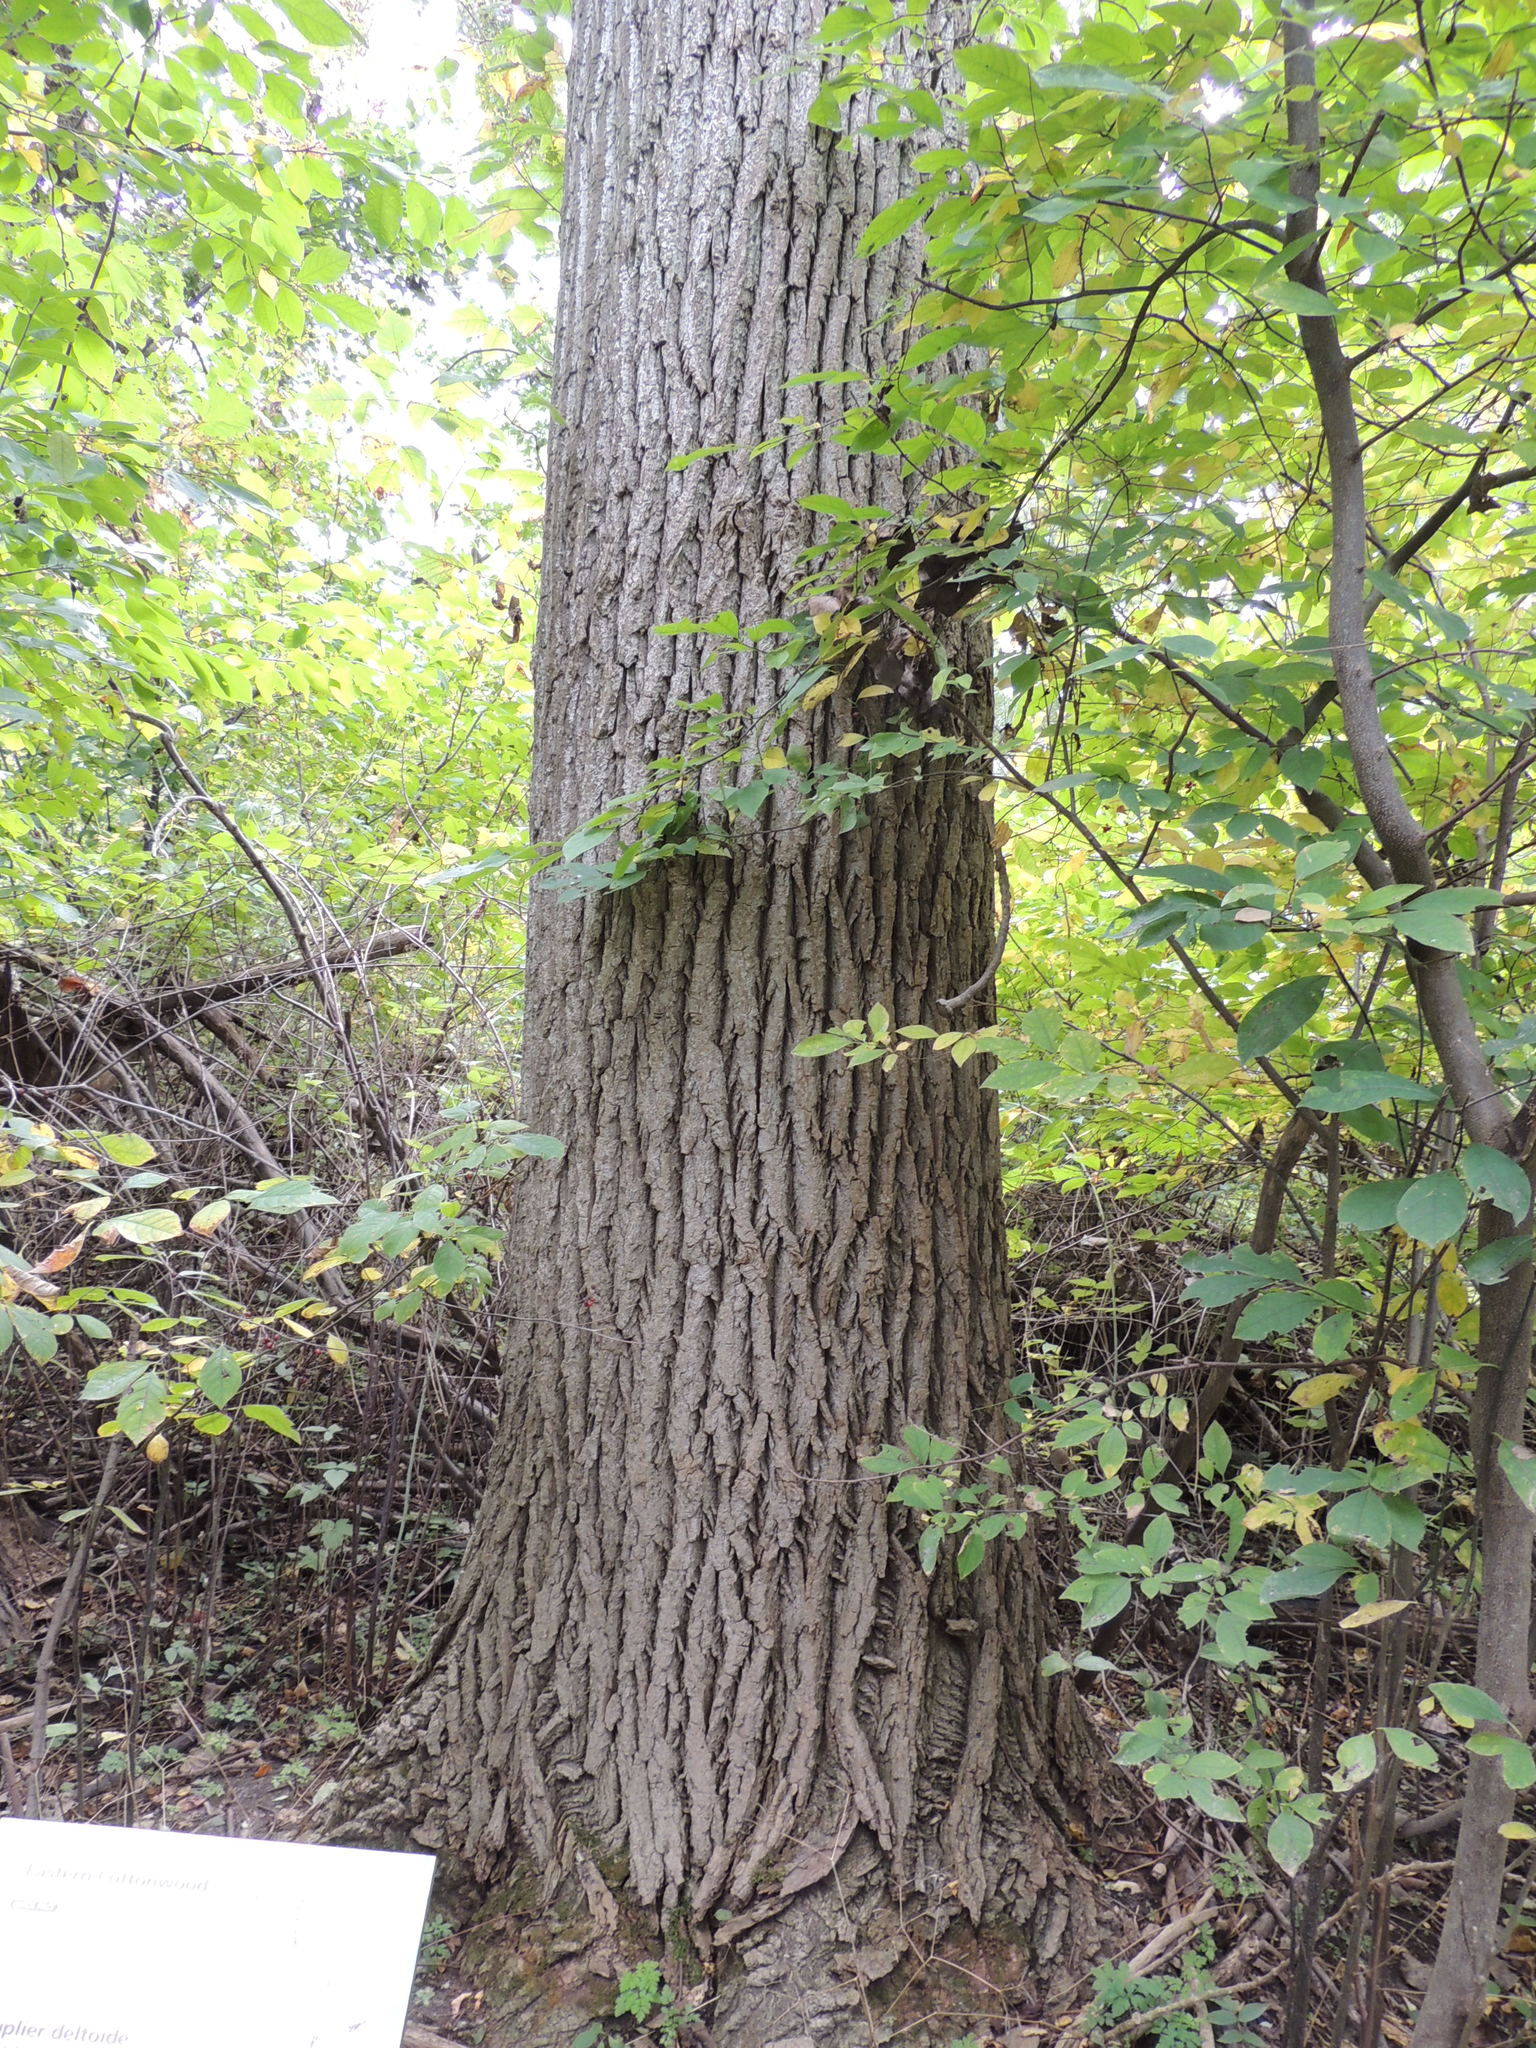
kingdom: Plantae
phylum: Tracheophyta
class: Magnoliopsida
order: Malpighiales
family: Salicaceae
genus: Populus
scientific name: Populus deltoides
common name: Eastern cottonwood
